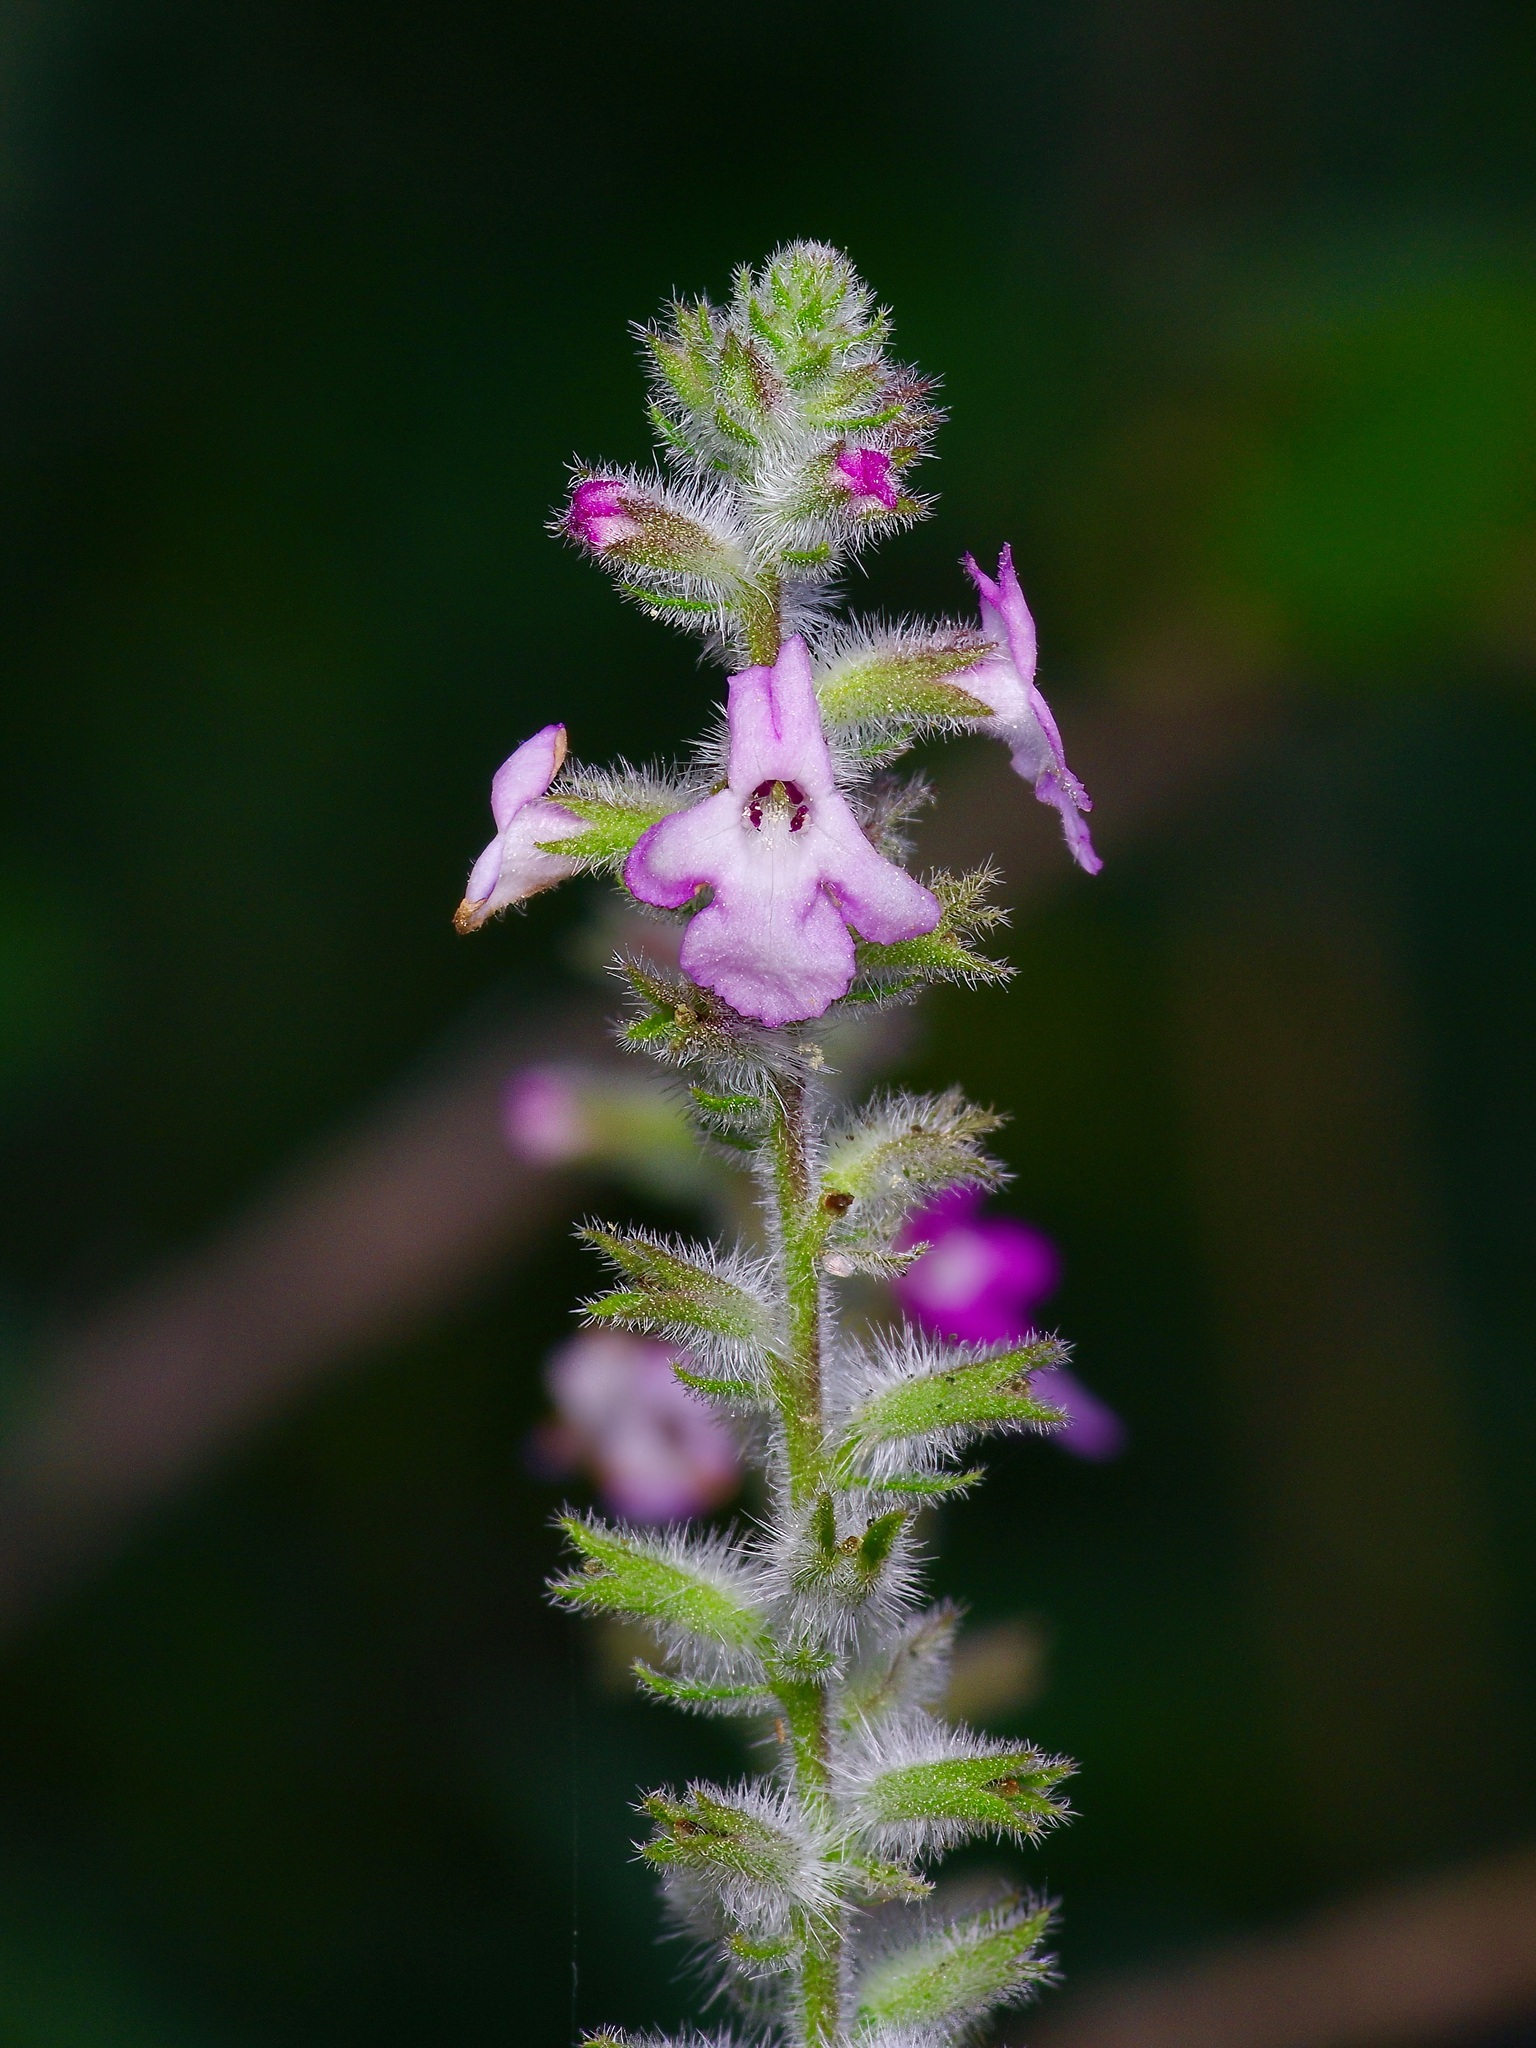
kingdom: Plantae
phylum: Tracheophyta
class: Magnoliopsida
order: Lamiales
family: Verbenaceae
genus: Aloysia
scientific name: Aloysia macrostachya
